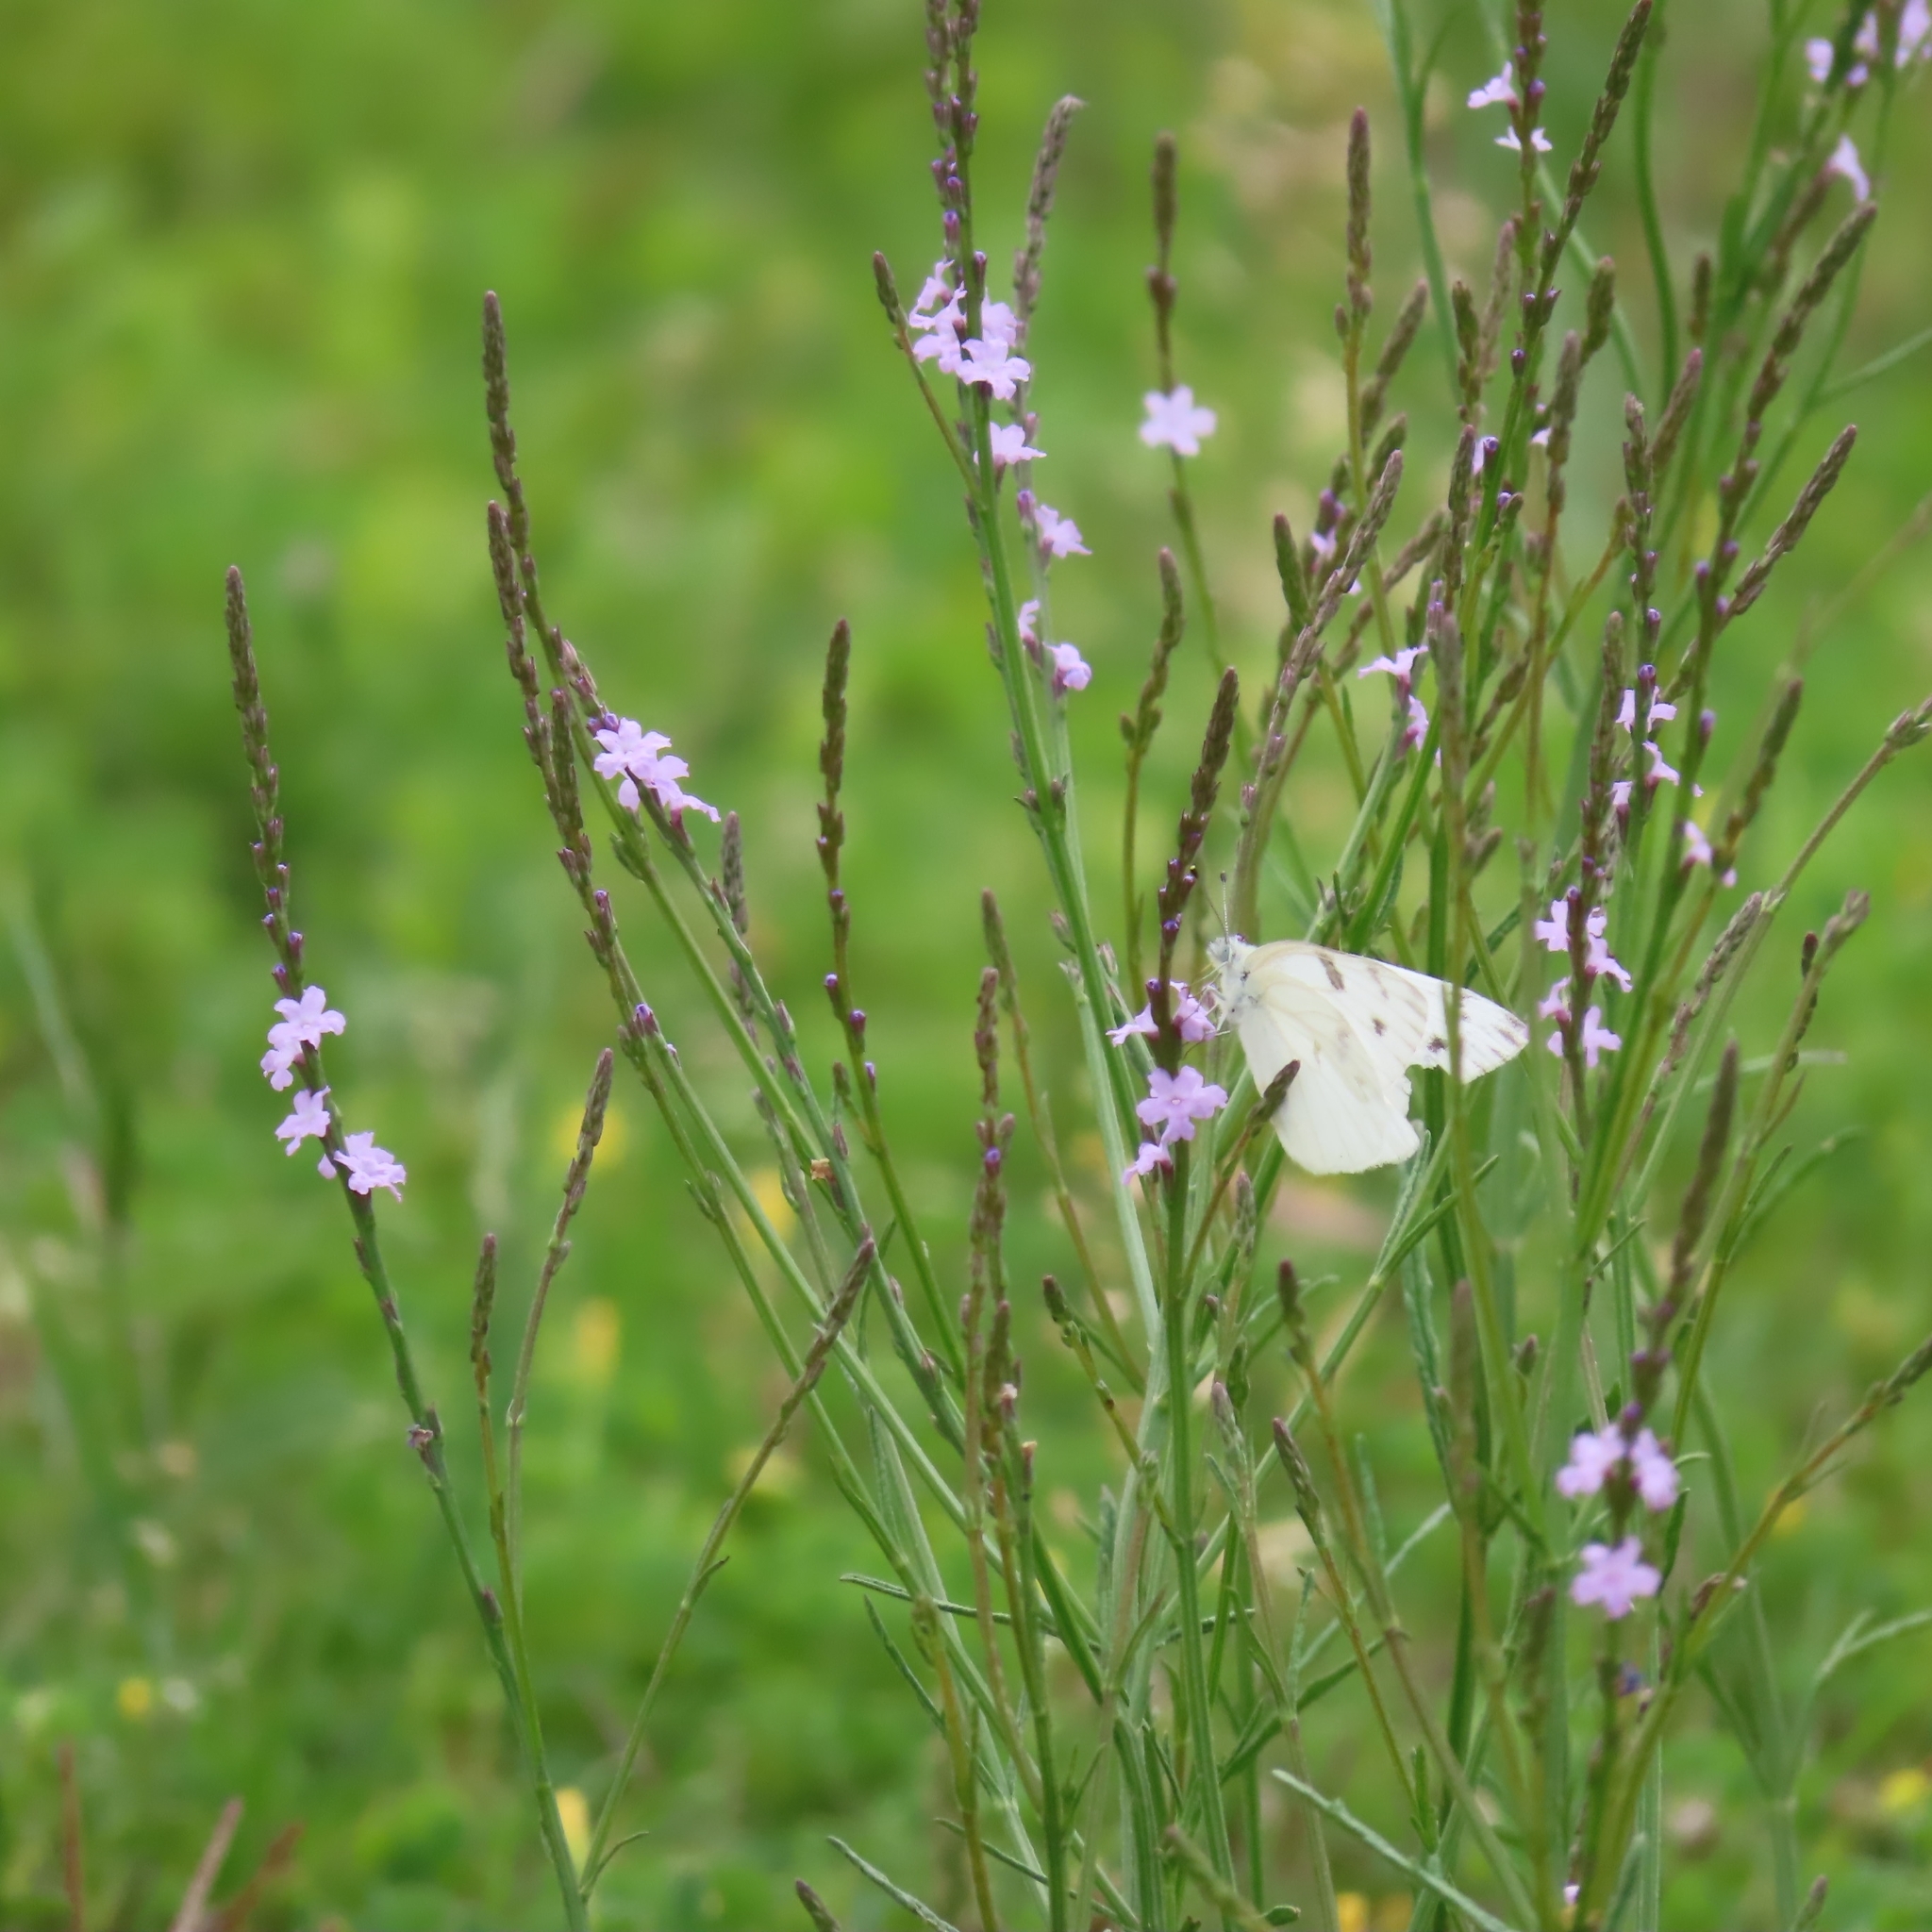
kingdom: Animalia
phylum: Arthropoda
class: Insecta
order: Lepidoptera
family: Pieridae
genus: Pontia
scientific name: Pontia protodice
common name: Checkered white
